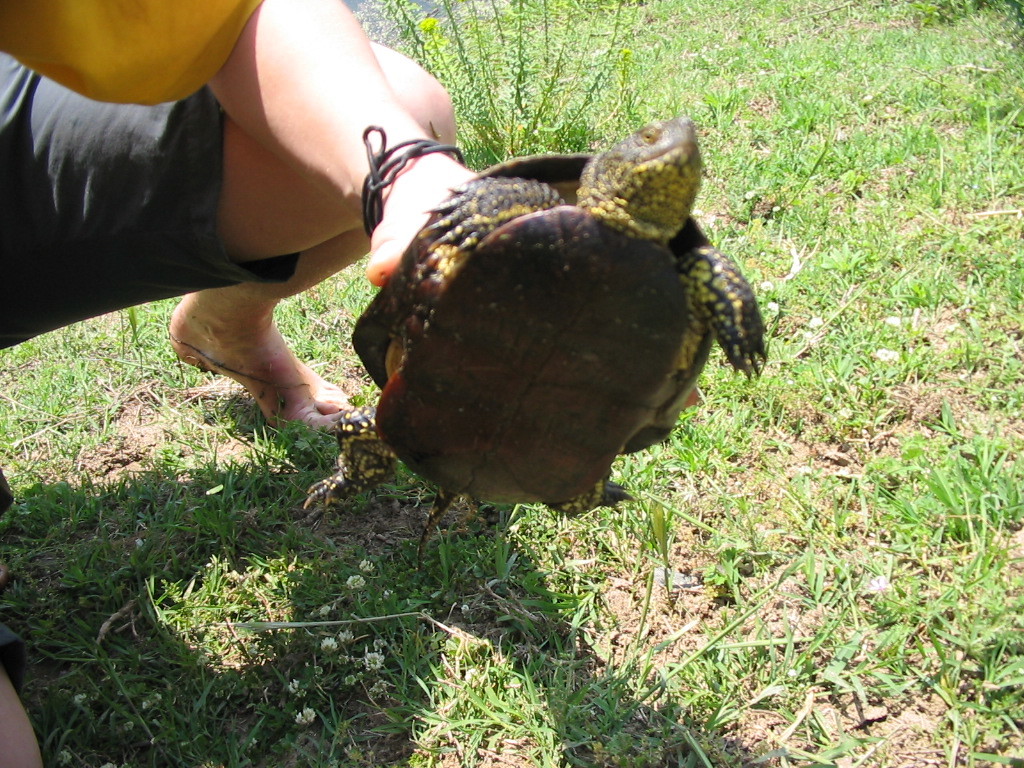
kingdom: Animalia
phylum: Chordata
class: Testudines
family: Emydidae
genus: Emys
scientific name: Emys orbicularis
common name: European pond turtle
